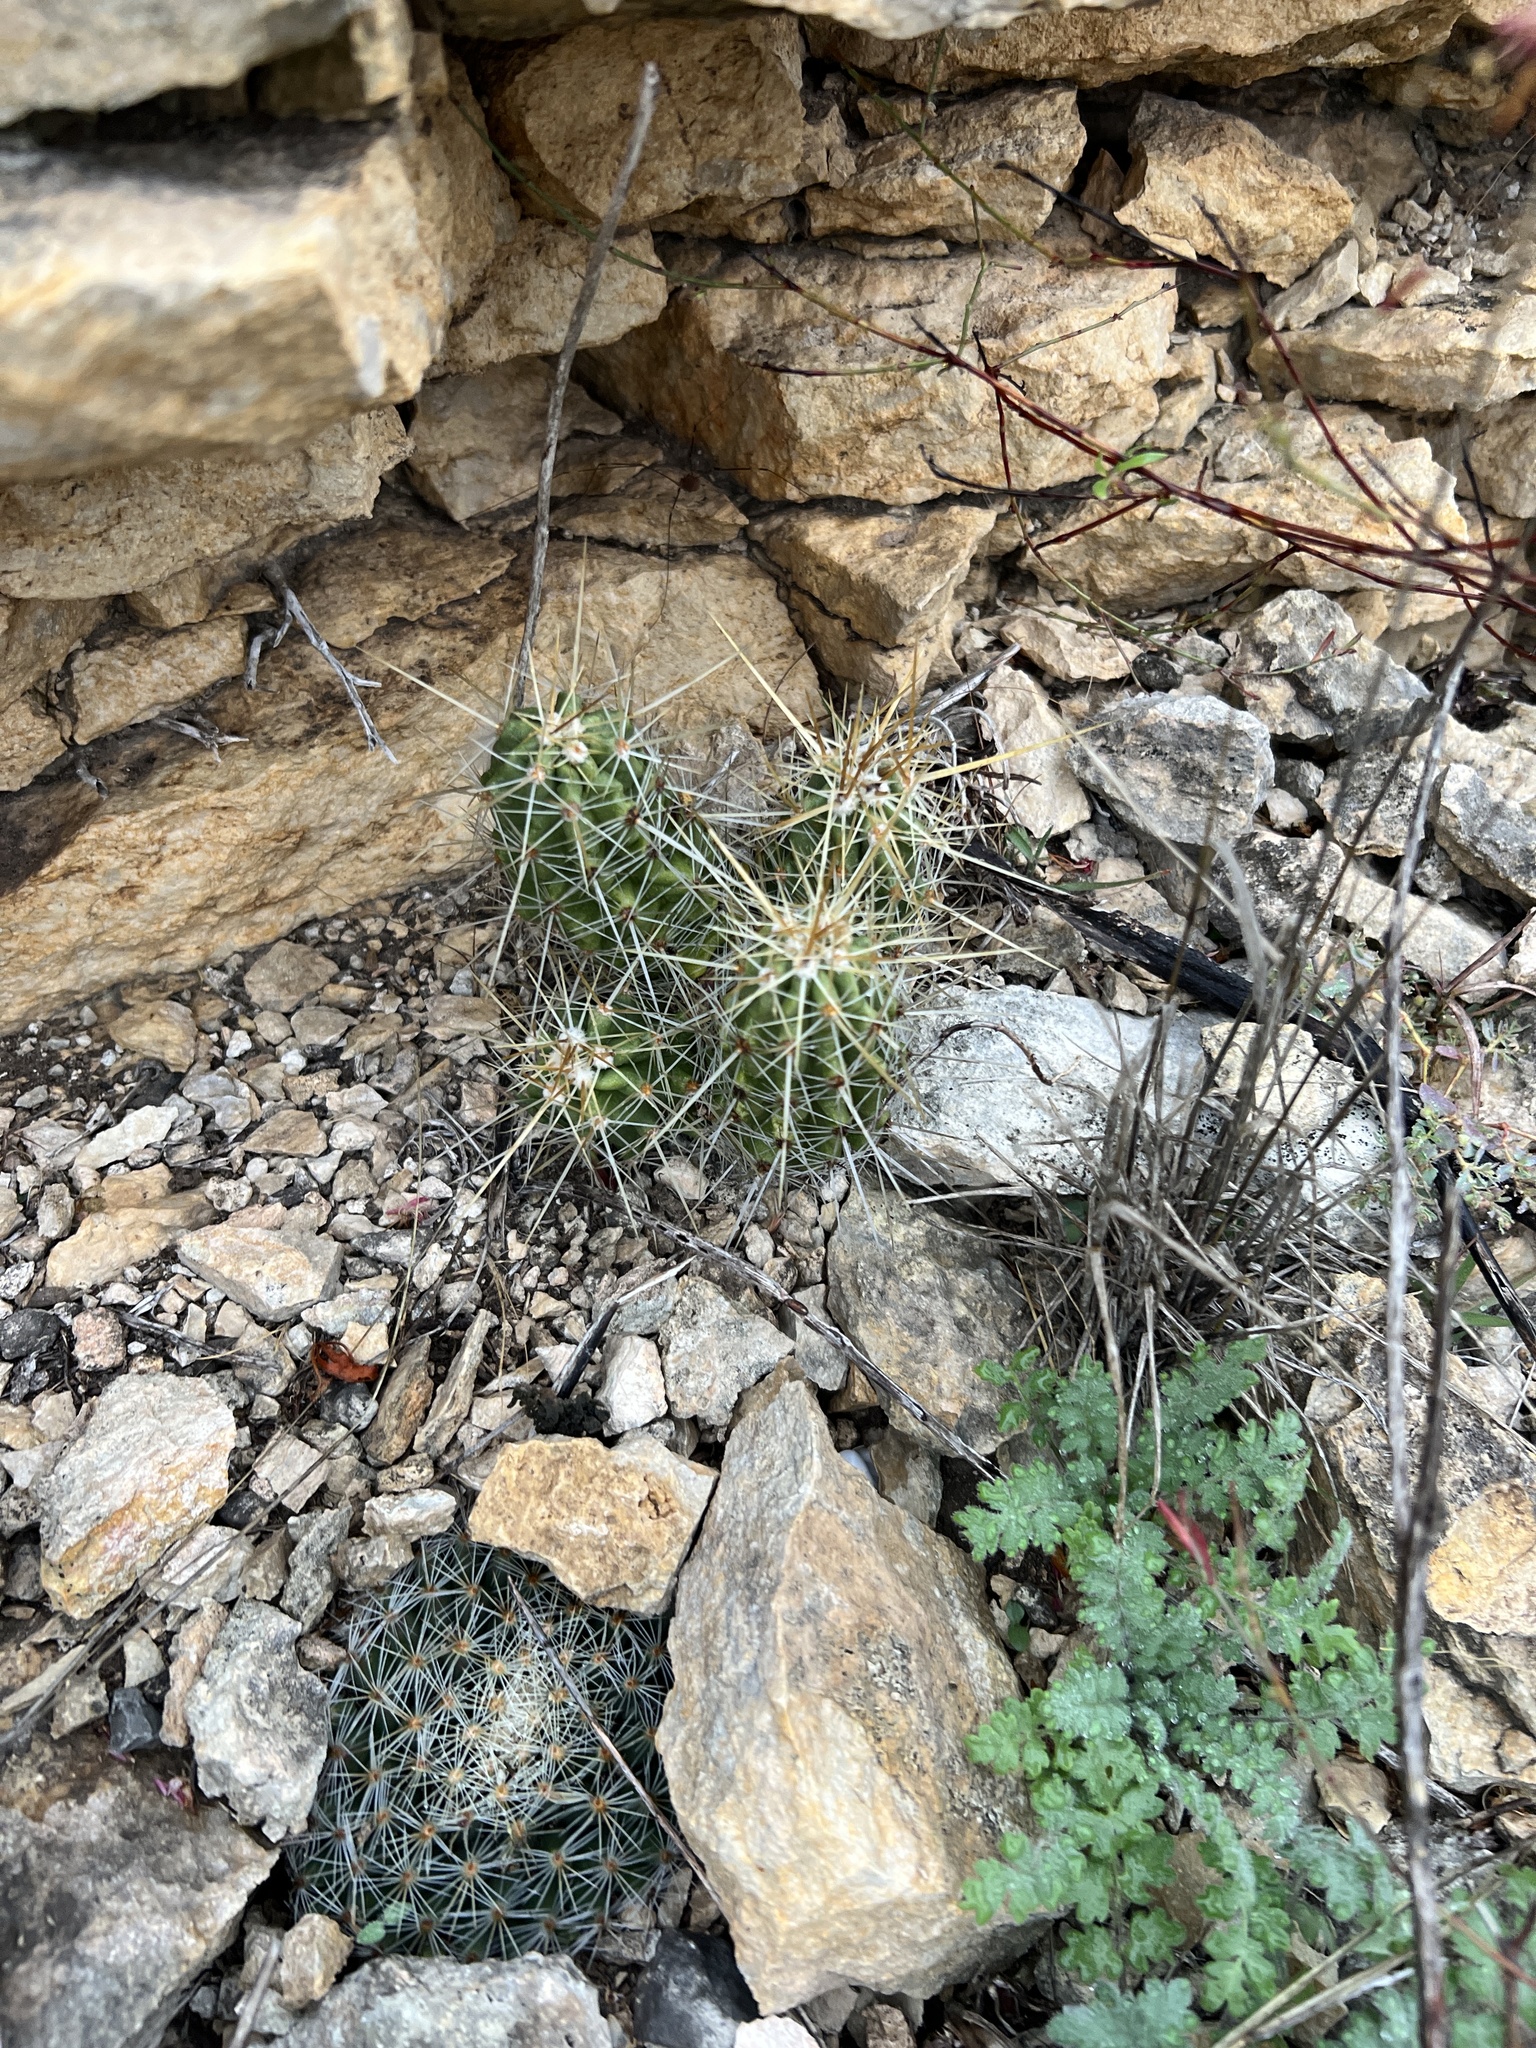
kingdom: Plantae
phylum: Tracheophyta
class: Magnoliopsida
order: Caryophyllales
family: Cactaceae
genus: Echinocereus
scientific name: Echinocereus enneacanthus
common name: Pitaya
